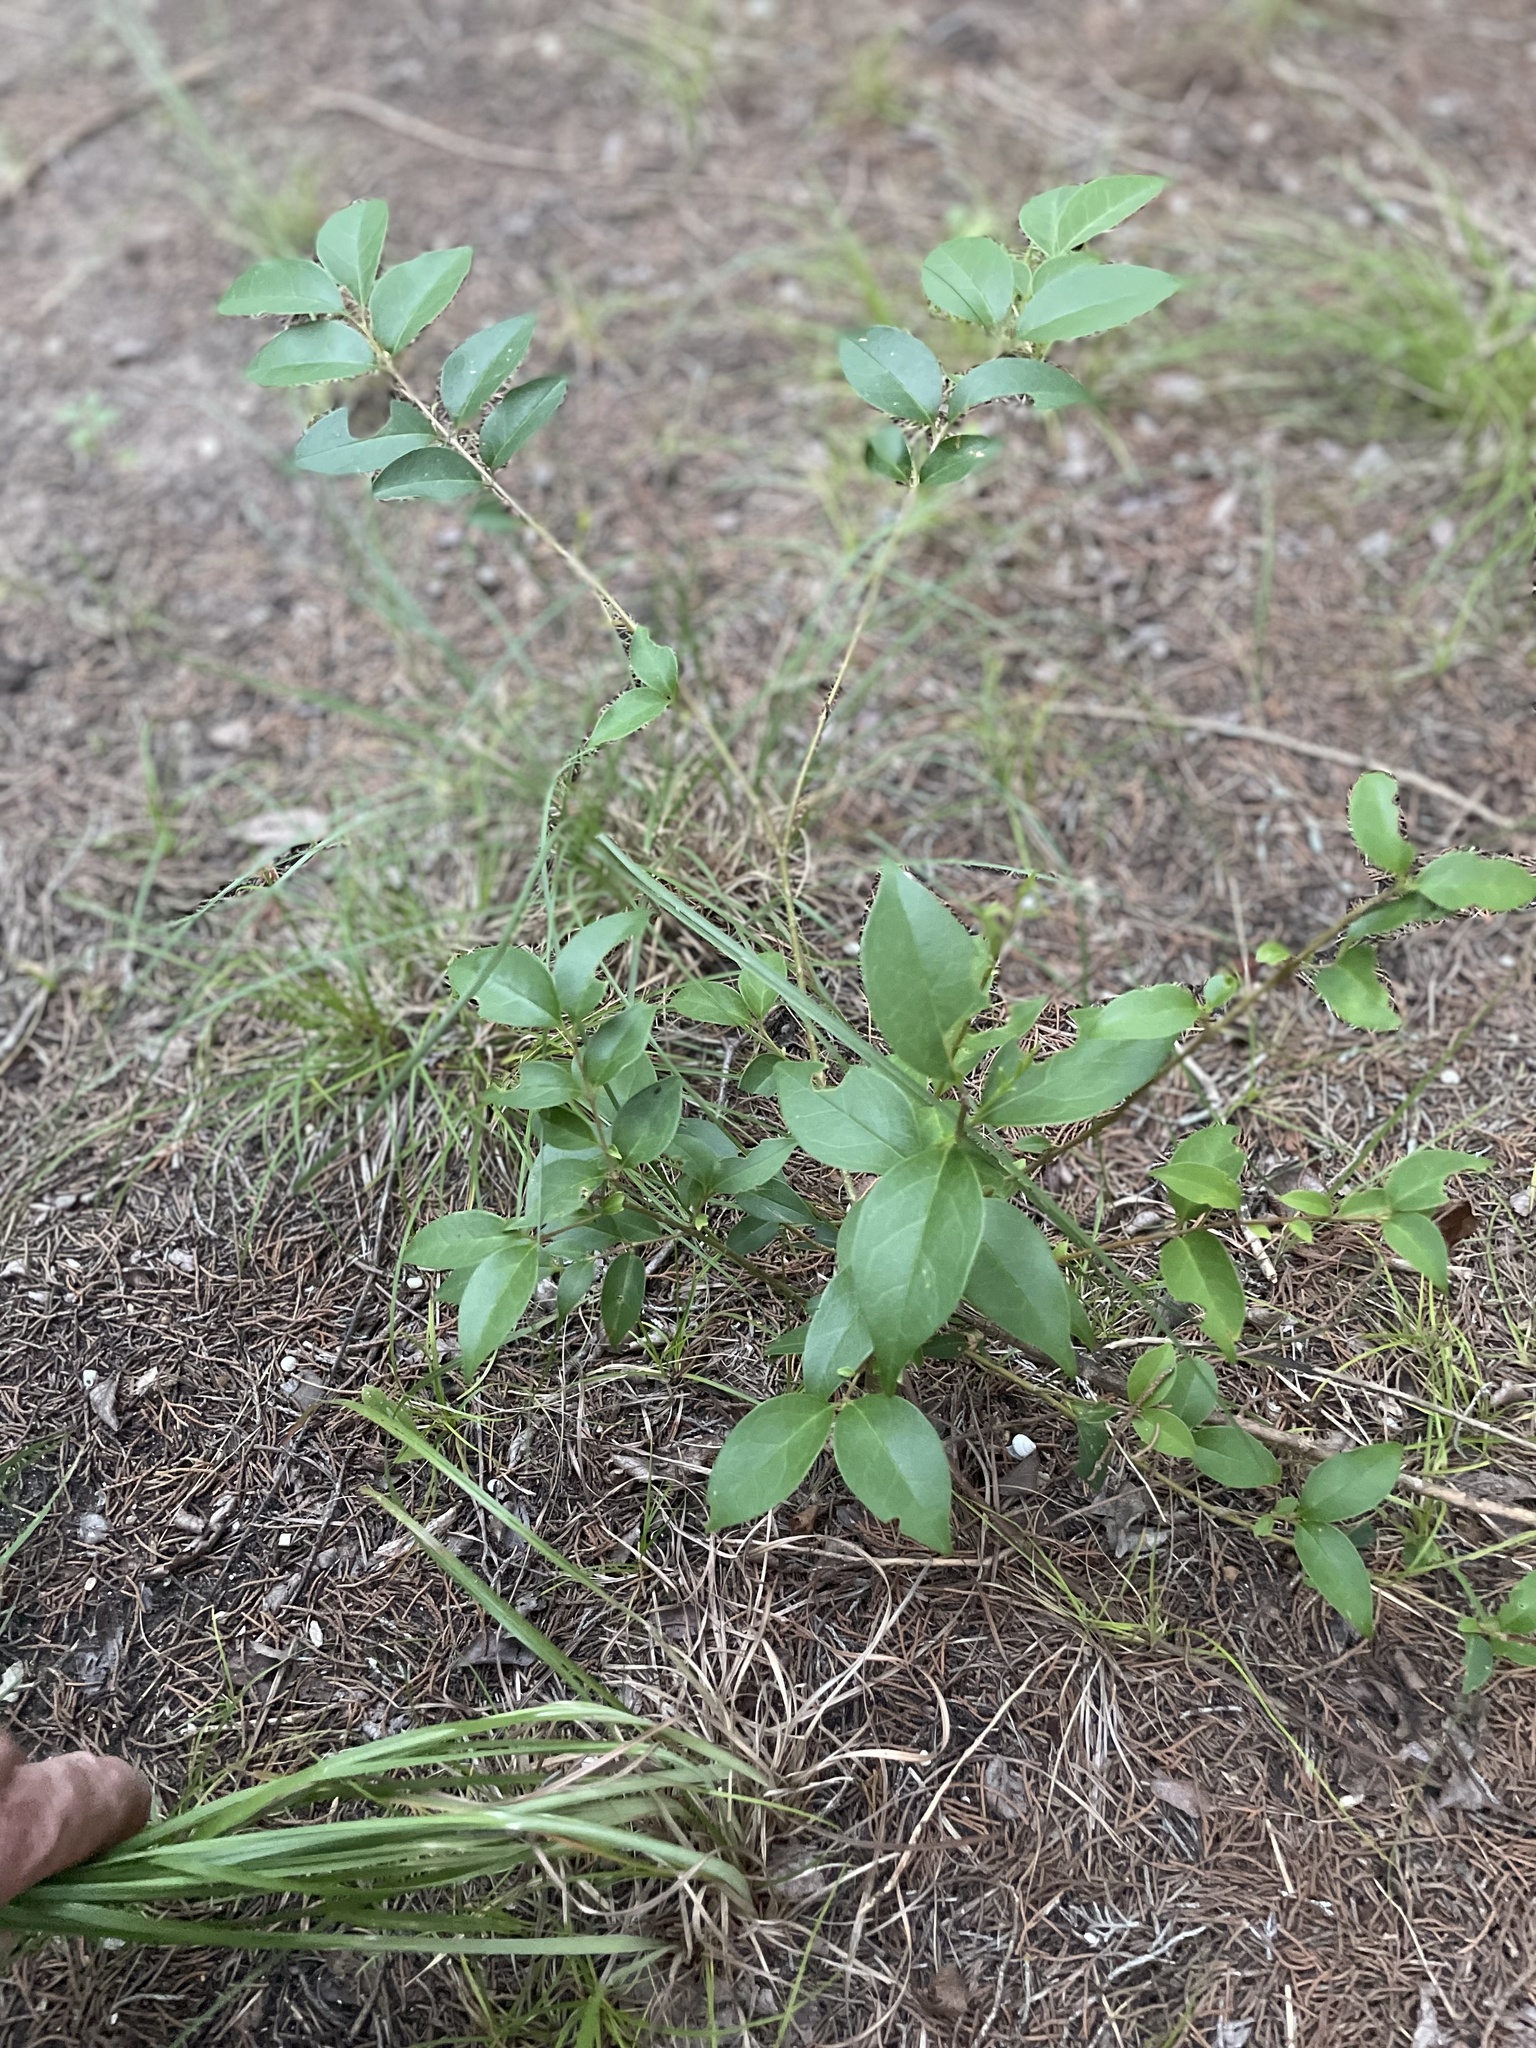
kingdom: Plantae
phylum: Tracheophyta
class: Magnoliopsida
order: Lamiales
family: Oleaceae
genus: Ligustrum
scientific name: Ligustrum lucidum
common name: Glossy privet
